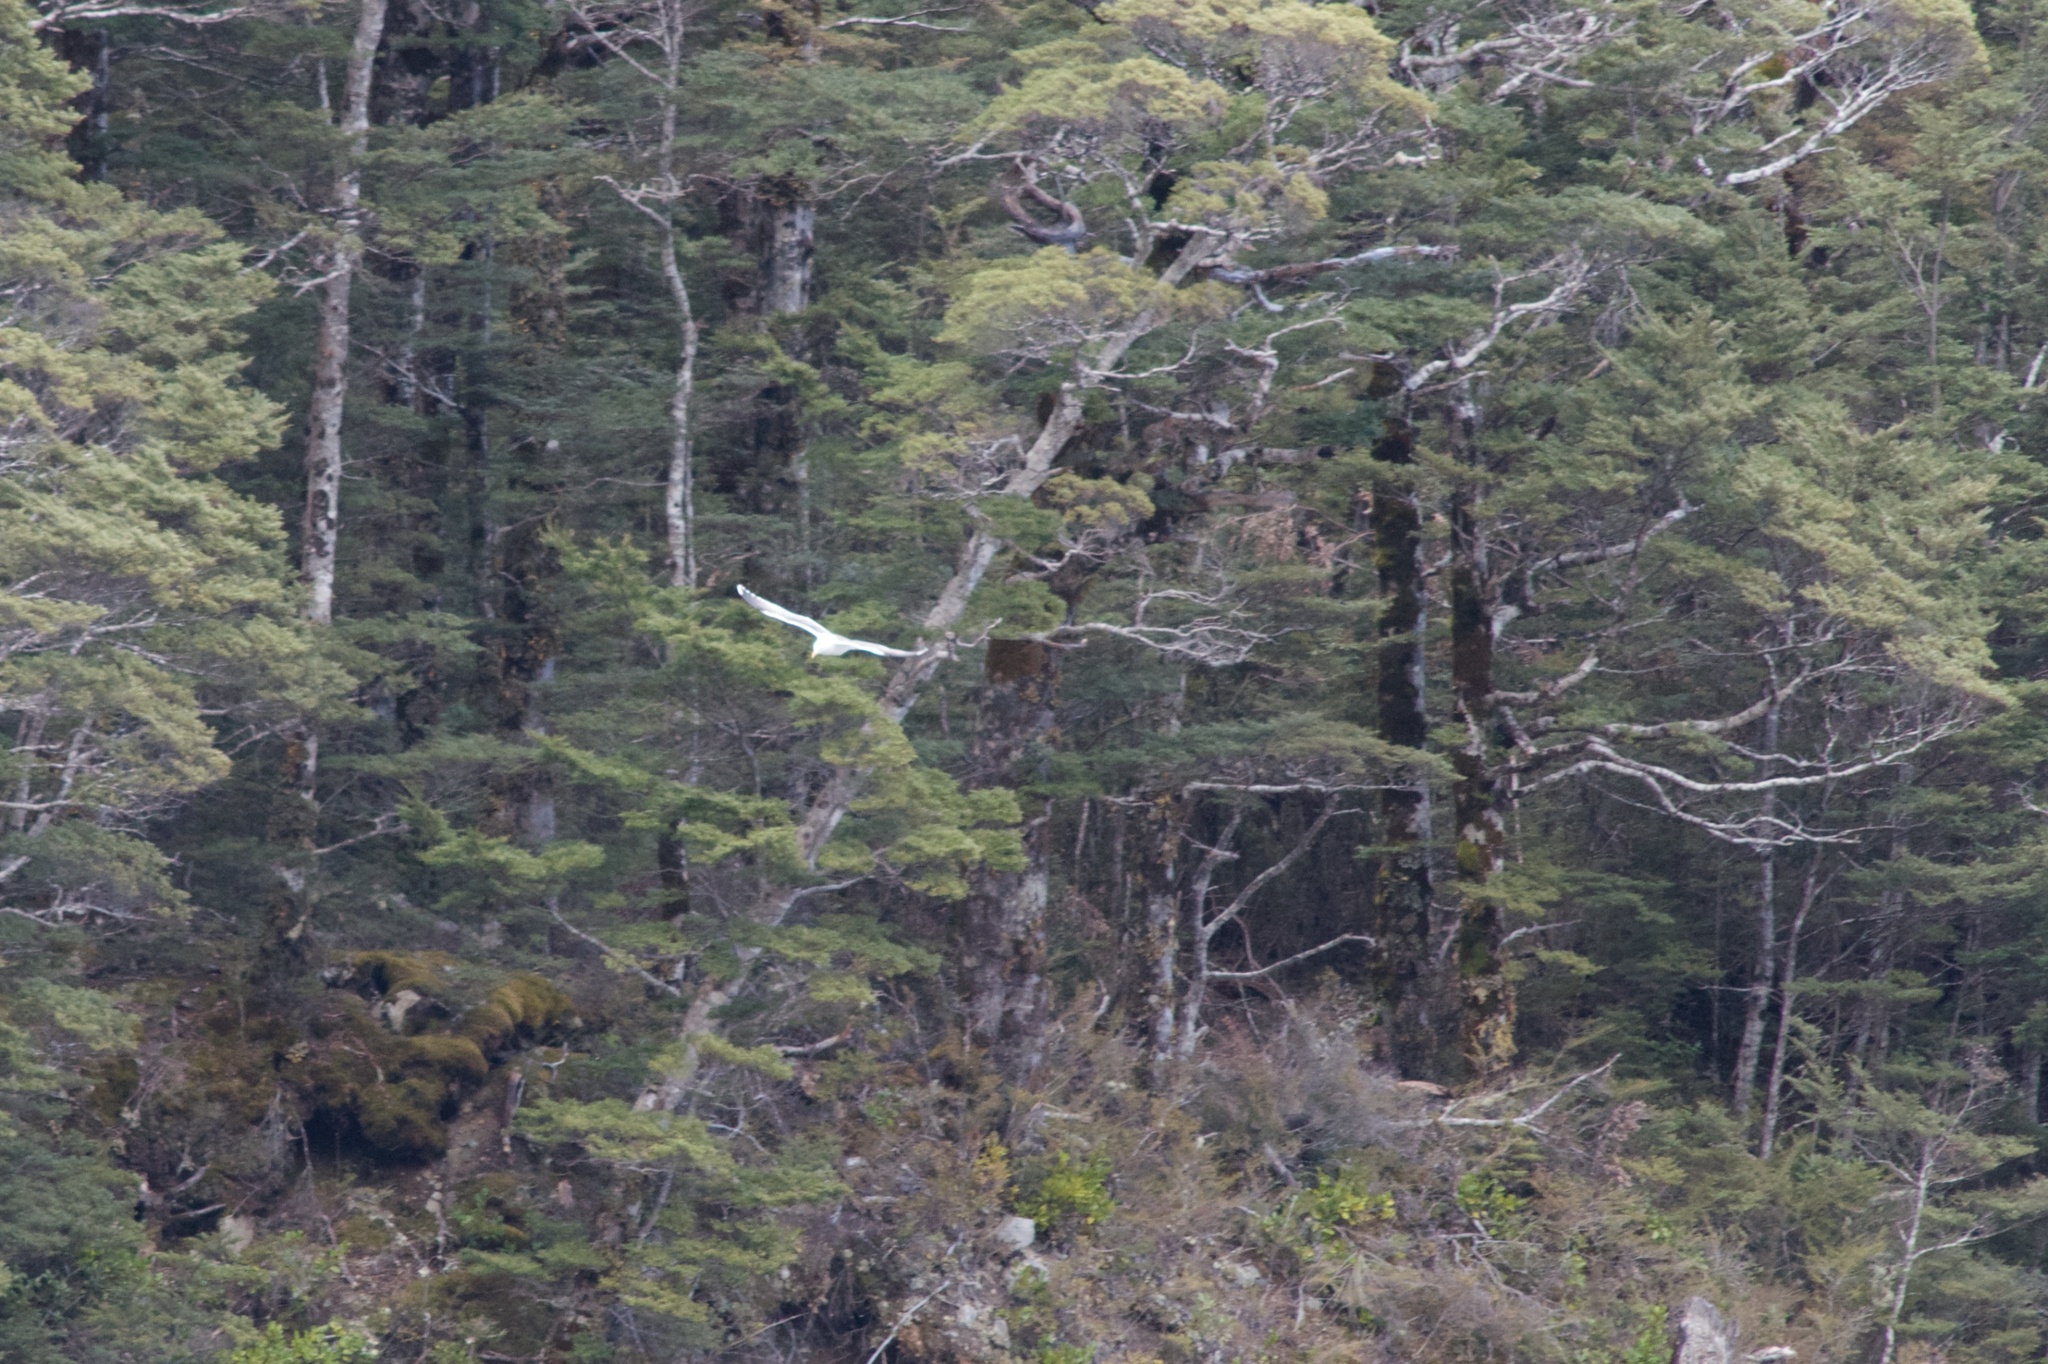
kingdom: Animalia
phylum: Chordata
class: Aves
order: Charadriiformes
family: Laridae
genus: Larus
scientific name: Larus dominicanus
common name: Kelp gull
